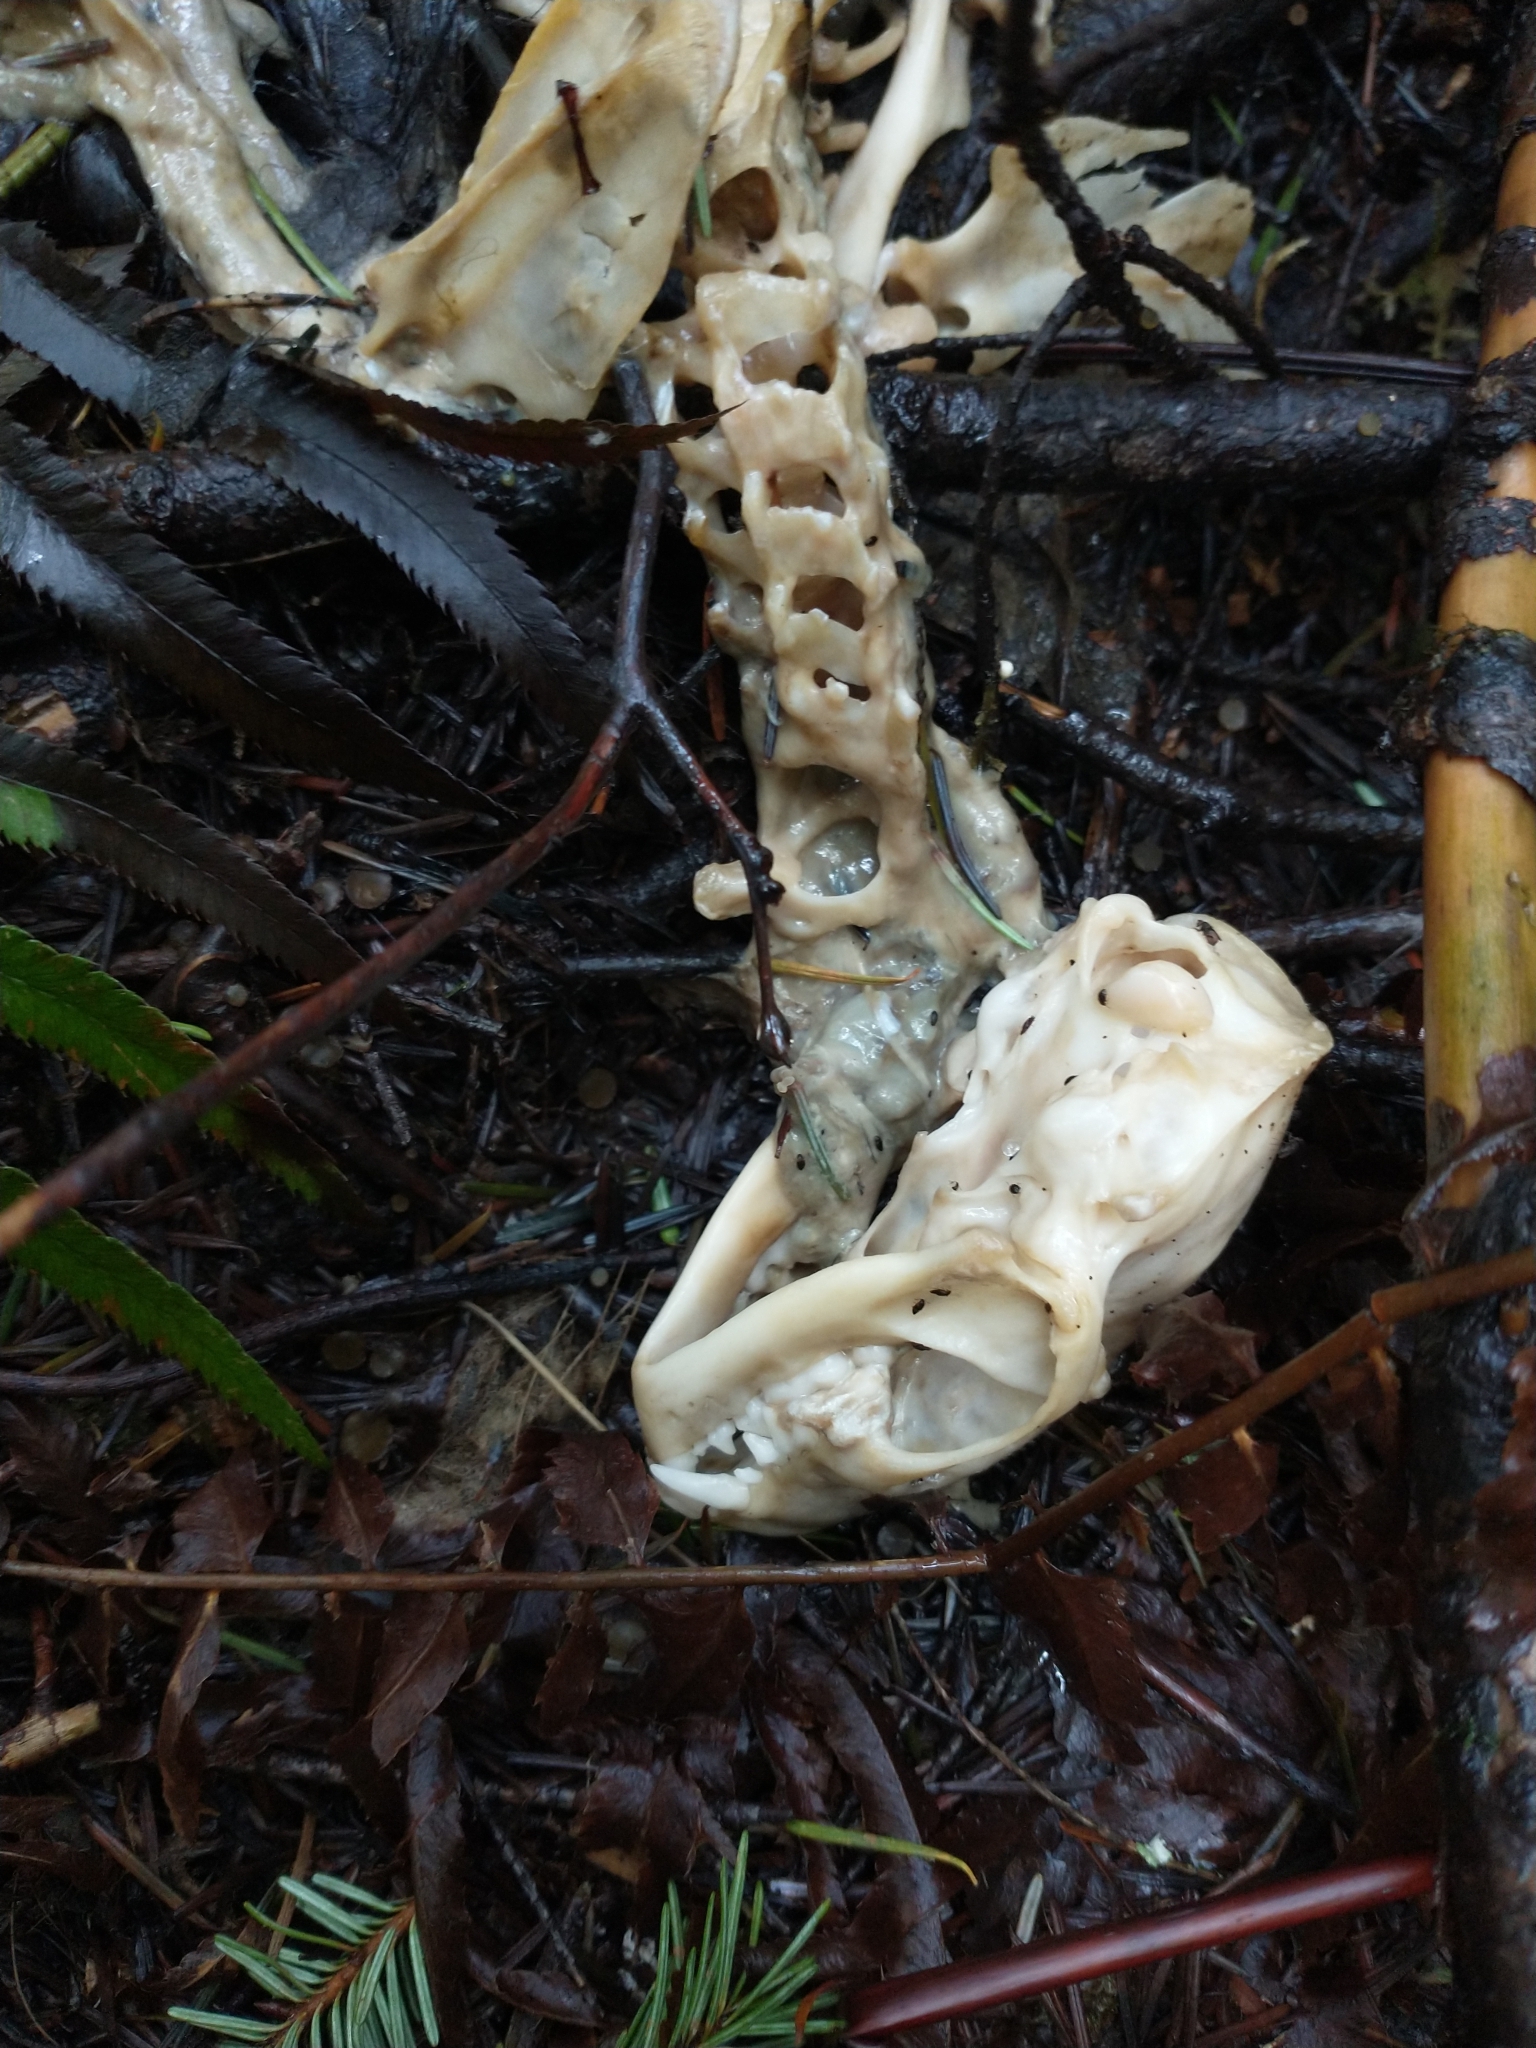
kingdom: Animalia
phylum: Chordata
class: Mammalia
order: Carnivora
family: Mephitidae
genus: Mephitis
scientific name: Mephitis mephitis
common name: Striped skunk
